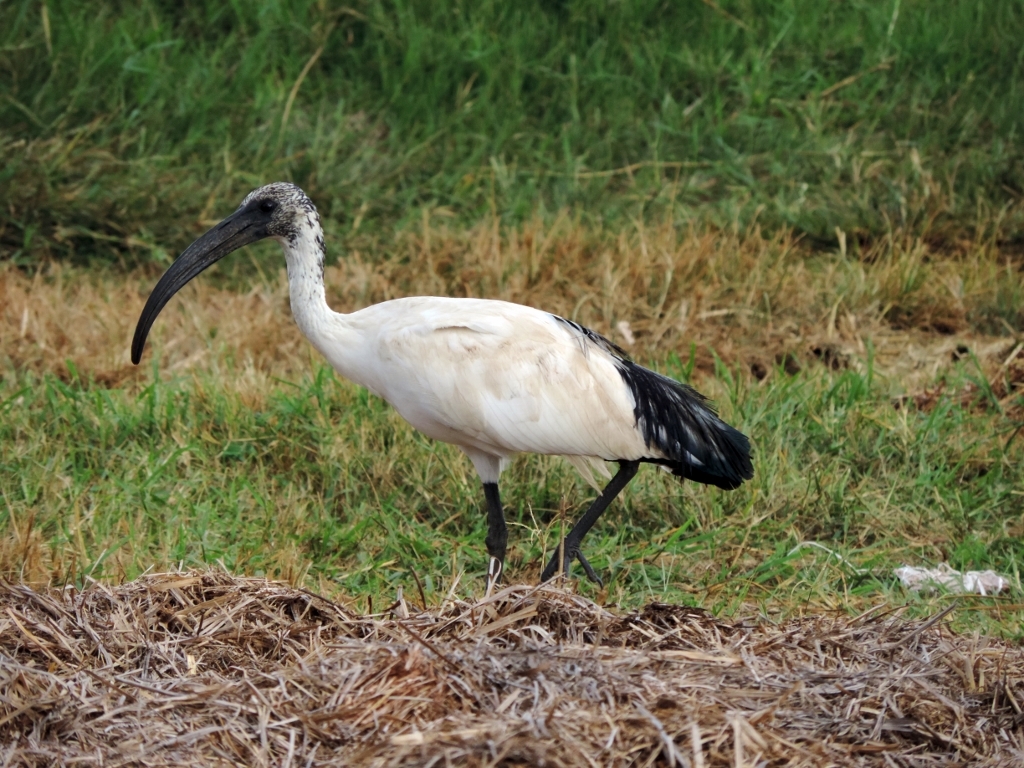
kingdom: Animalia
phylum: Chordata
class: Aves
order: Pelecaniformes
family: Threskiornithidae
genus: Threskiornis
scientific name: Threskiornis aethiopicus
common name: Sacred ibis
